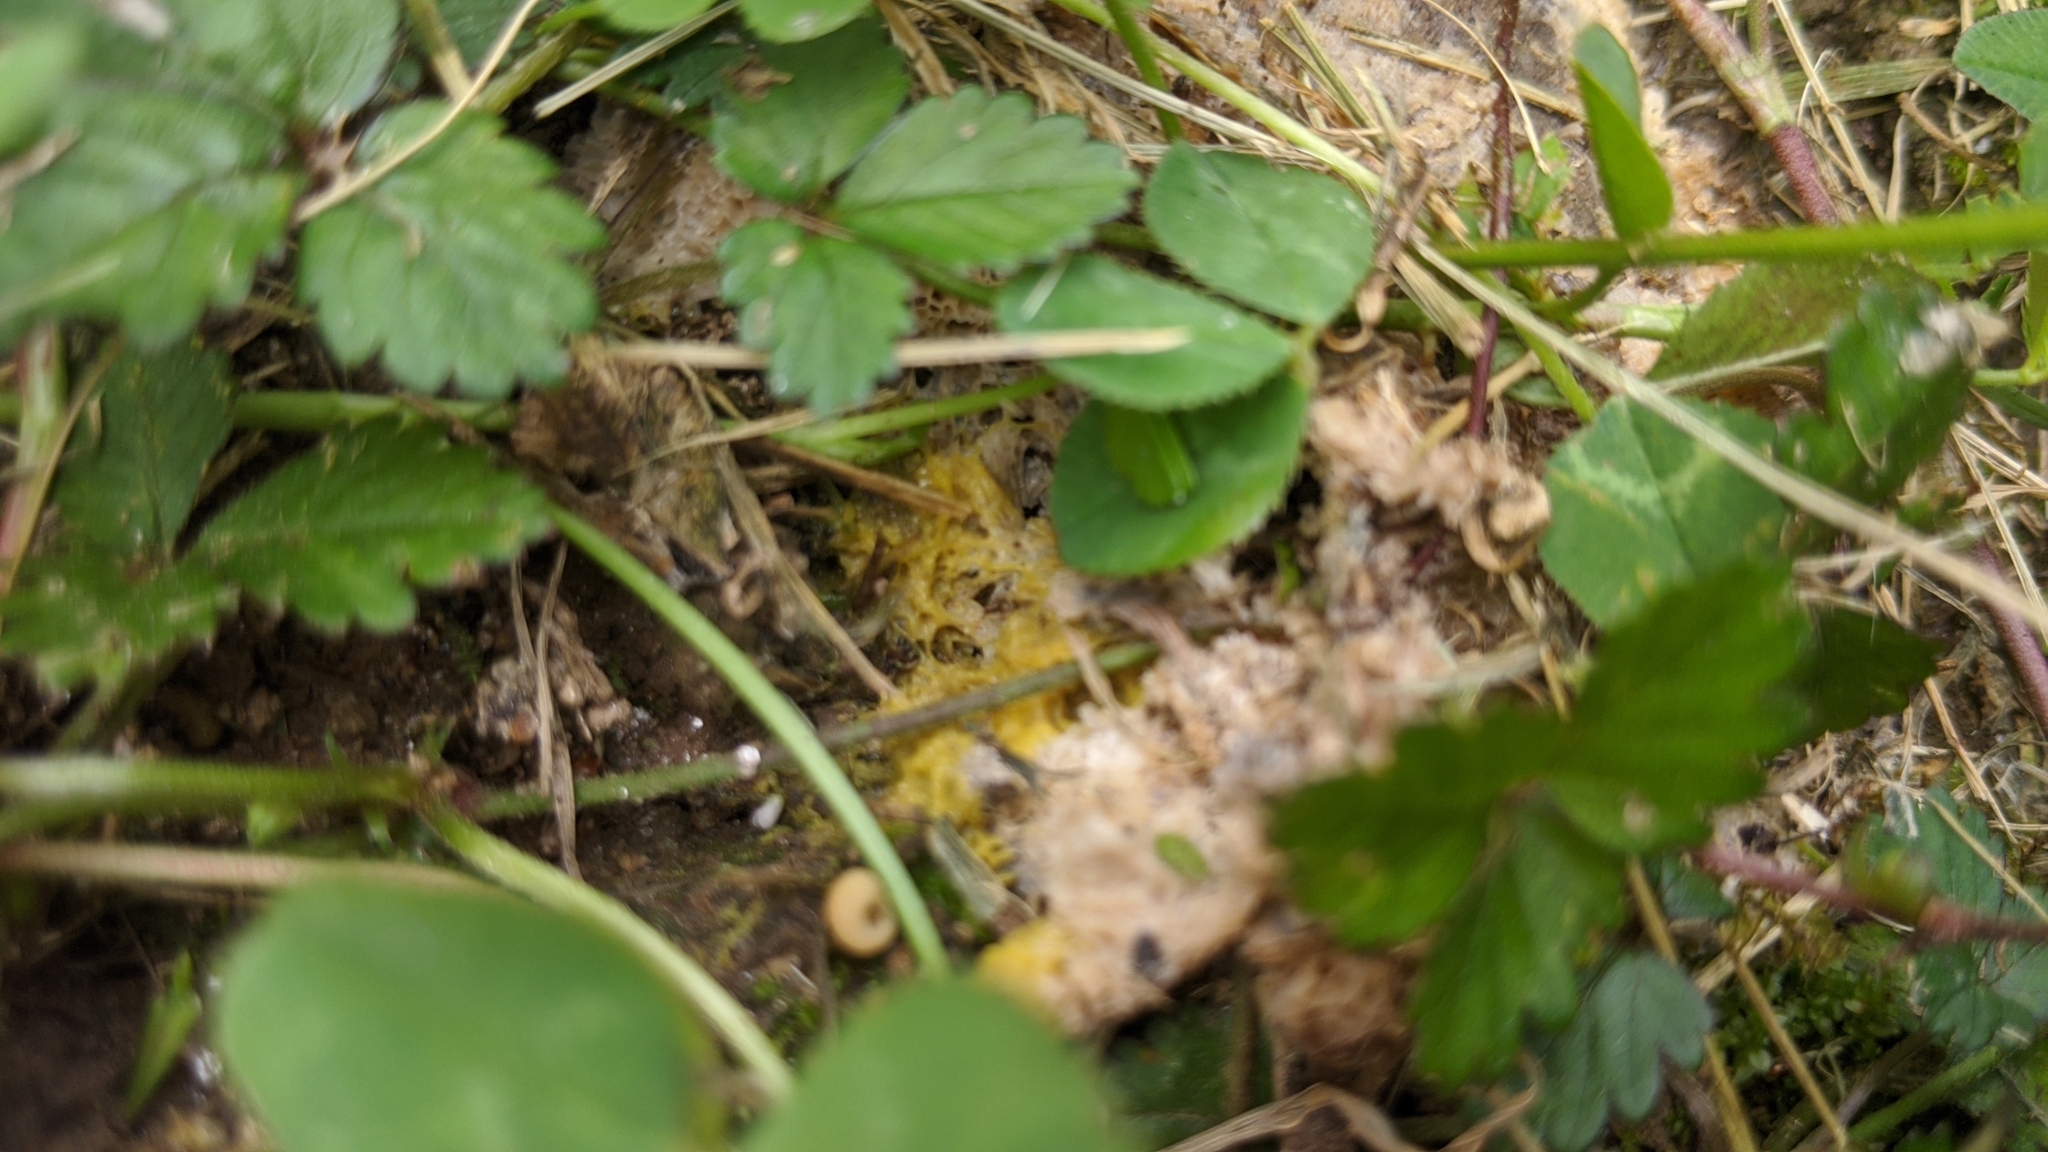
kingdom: Protozoa
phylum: Mycetozoa
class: Myxomycetes
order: Physarales
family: Physaraceae
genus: Fuligo
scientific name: Fuligo septica
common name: Dog vomit slime mold
